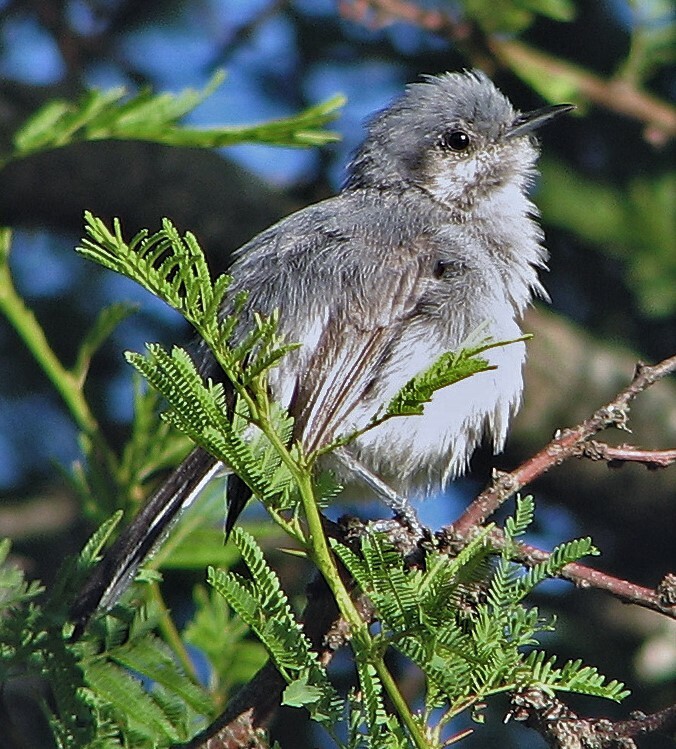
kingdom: Animalia
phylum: Chordata
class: Aves
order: Passeriformes
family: Polioptilidae
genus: Polioptila
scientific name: Polioptila dumicola
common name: Masked gnatcatcher
